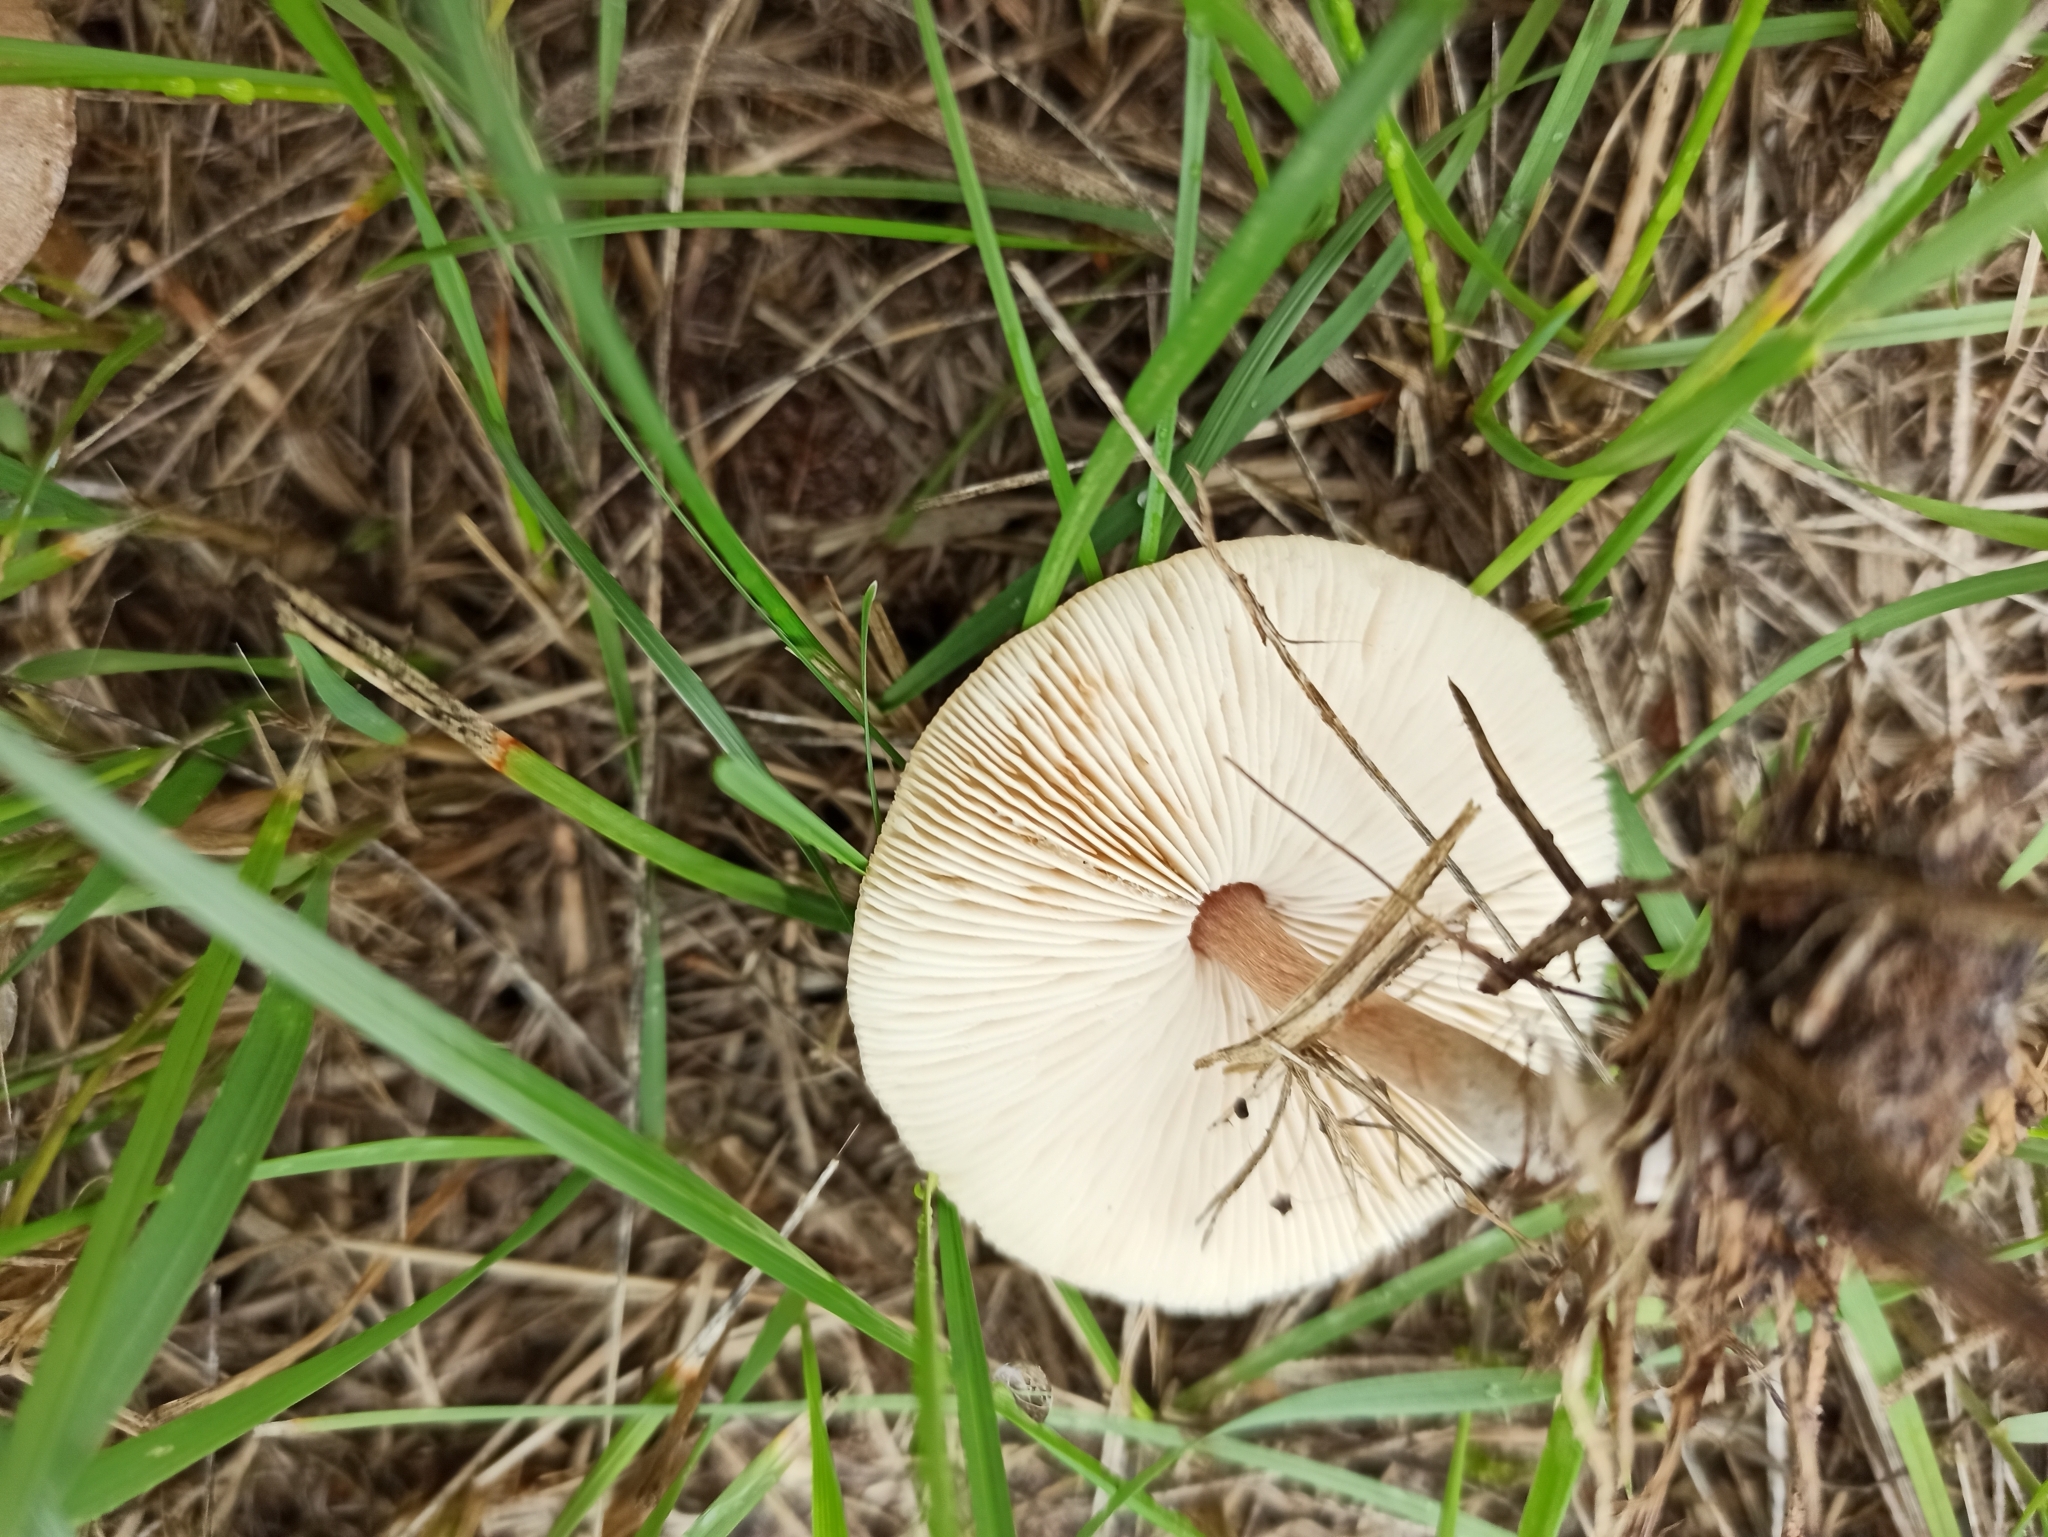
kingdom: Fungi
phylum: Basidiomycota
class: Agaricomycetes
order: Agaricales
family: Agaricaceae
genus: Lepiota
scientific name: Lepiota cristata
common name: Stinking dapperling
